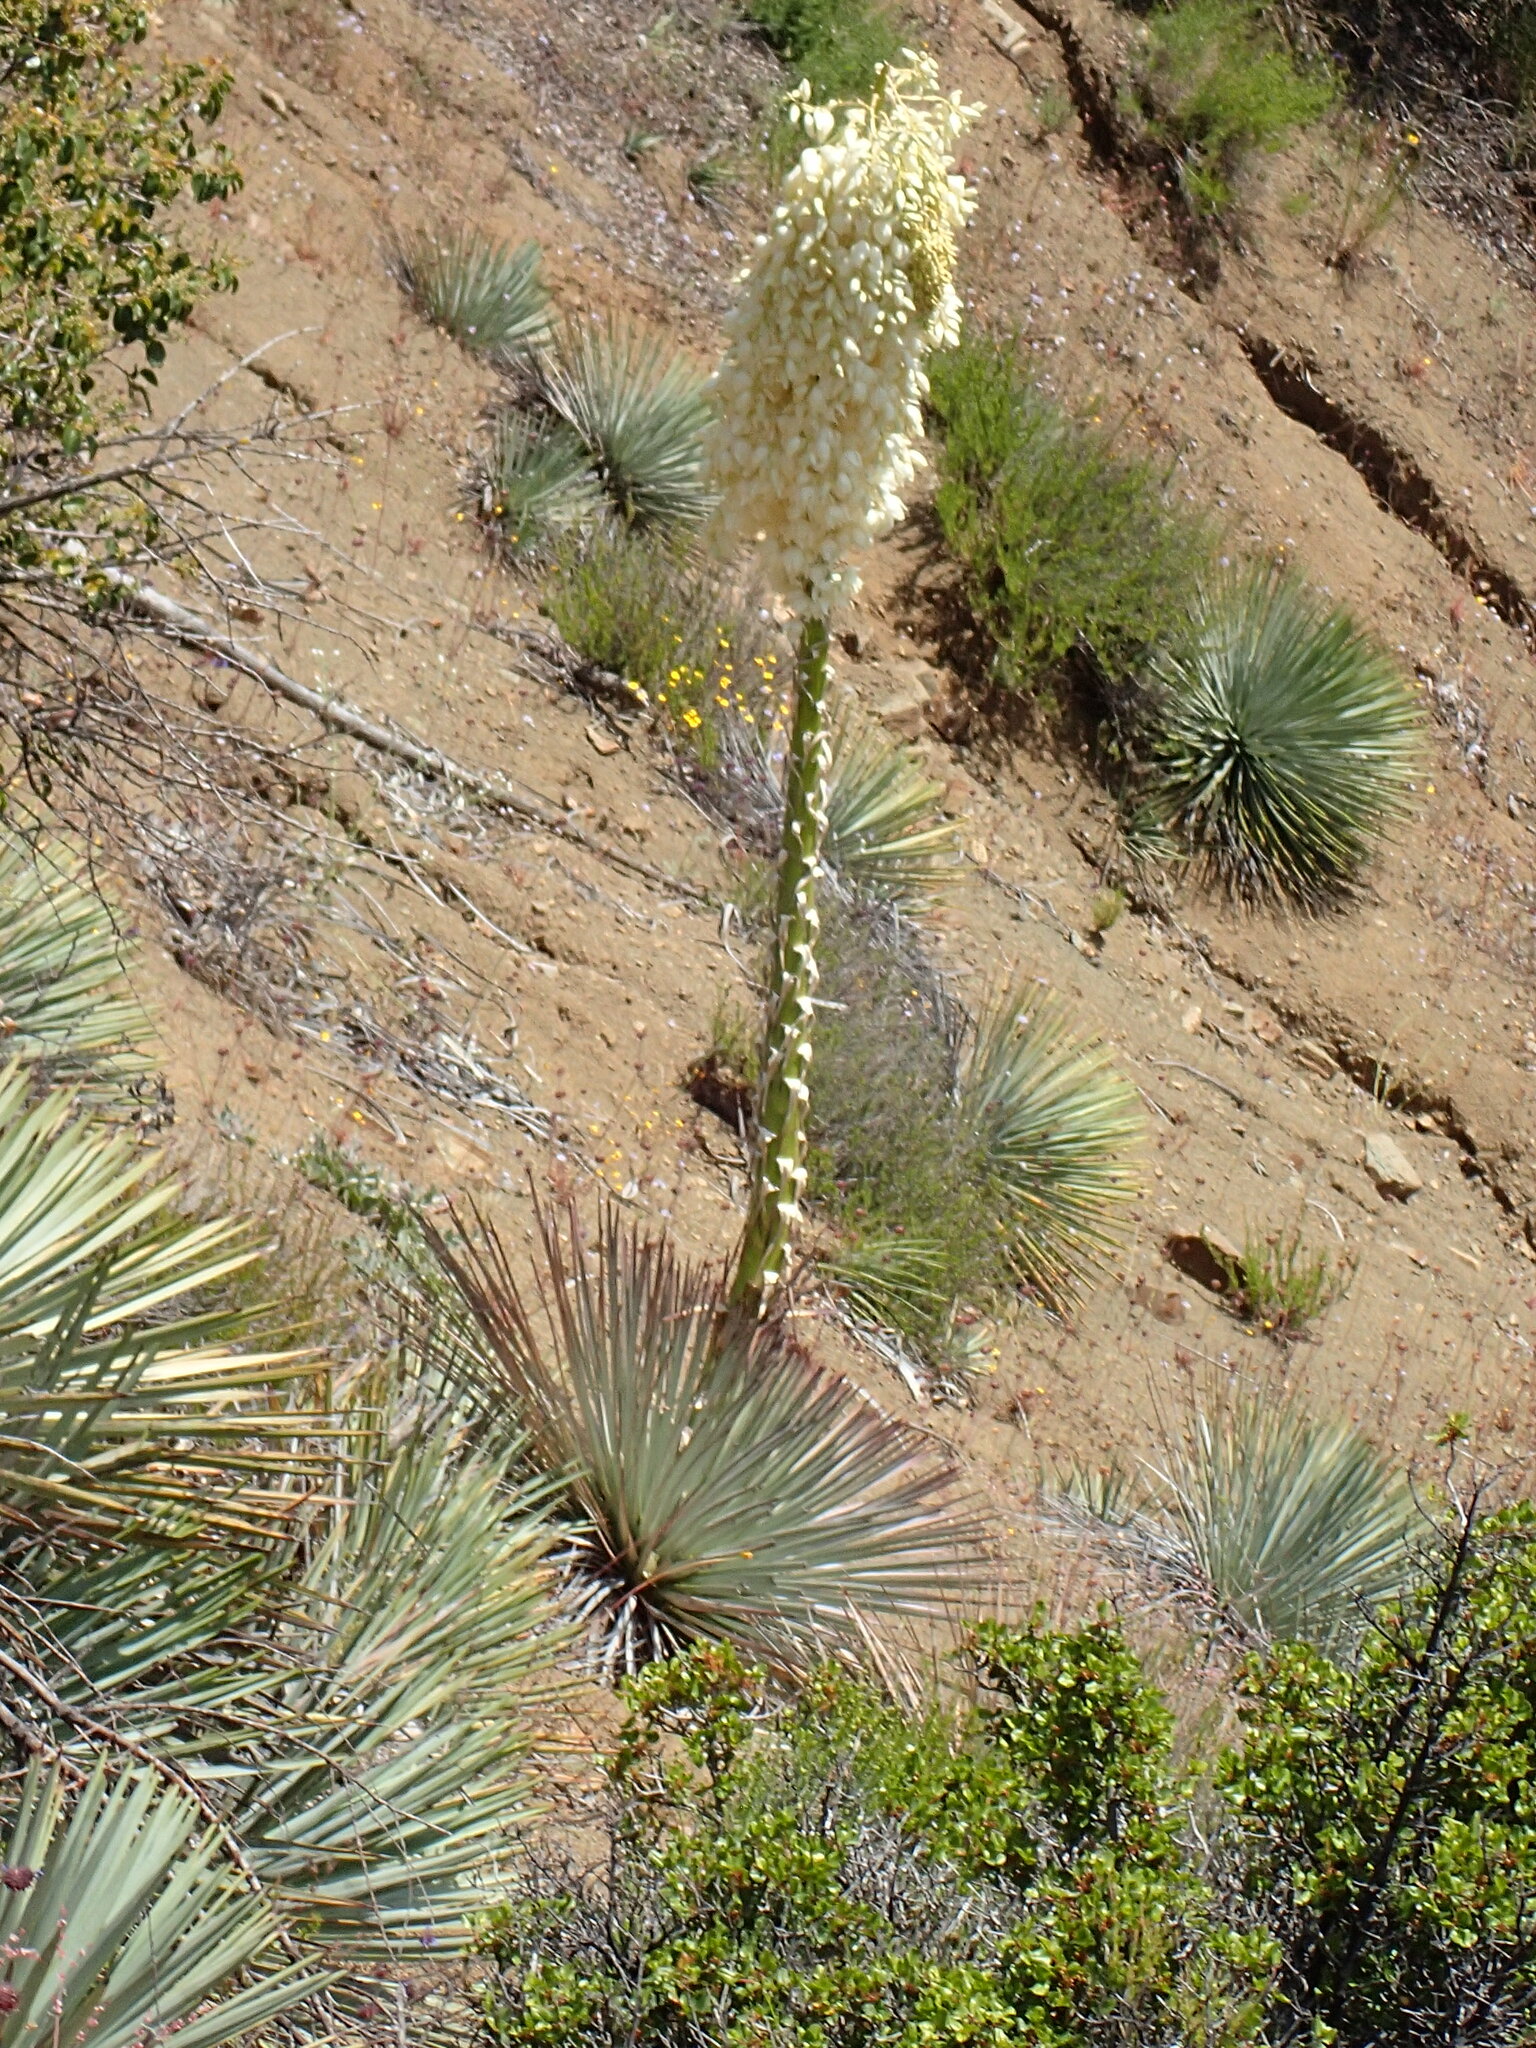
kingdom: Plantae
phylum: Tracheophyta
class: Liliopsida
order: Asparagales
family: Asparagaceae
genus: Hesperoyucca
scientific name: Hesperoyucca whipplei
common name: Our lord's-candle
